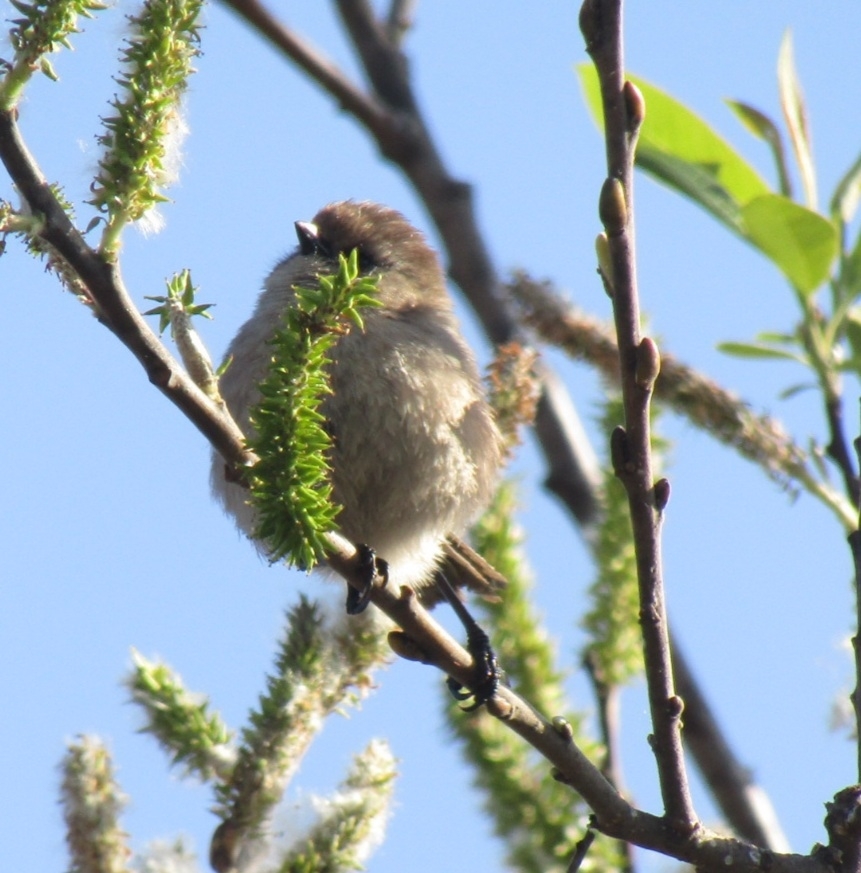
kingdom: Animalia
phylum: Chordata
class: Aves
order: Passeriformes
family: Aegithalidae
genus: Psaltriparus
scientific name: Psaltriparus minimus
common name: American bushtit
